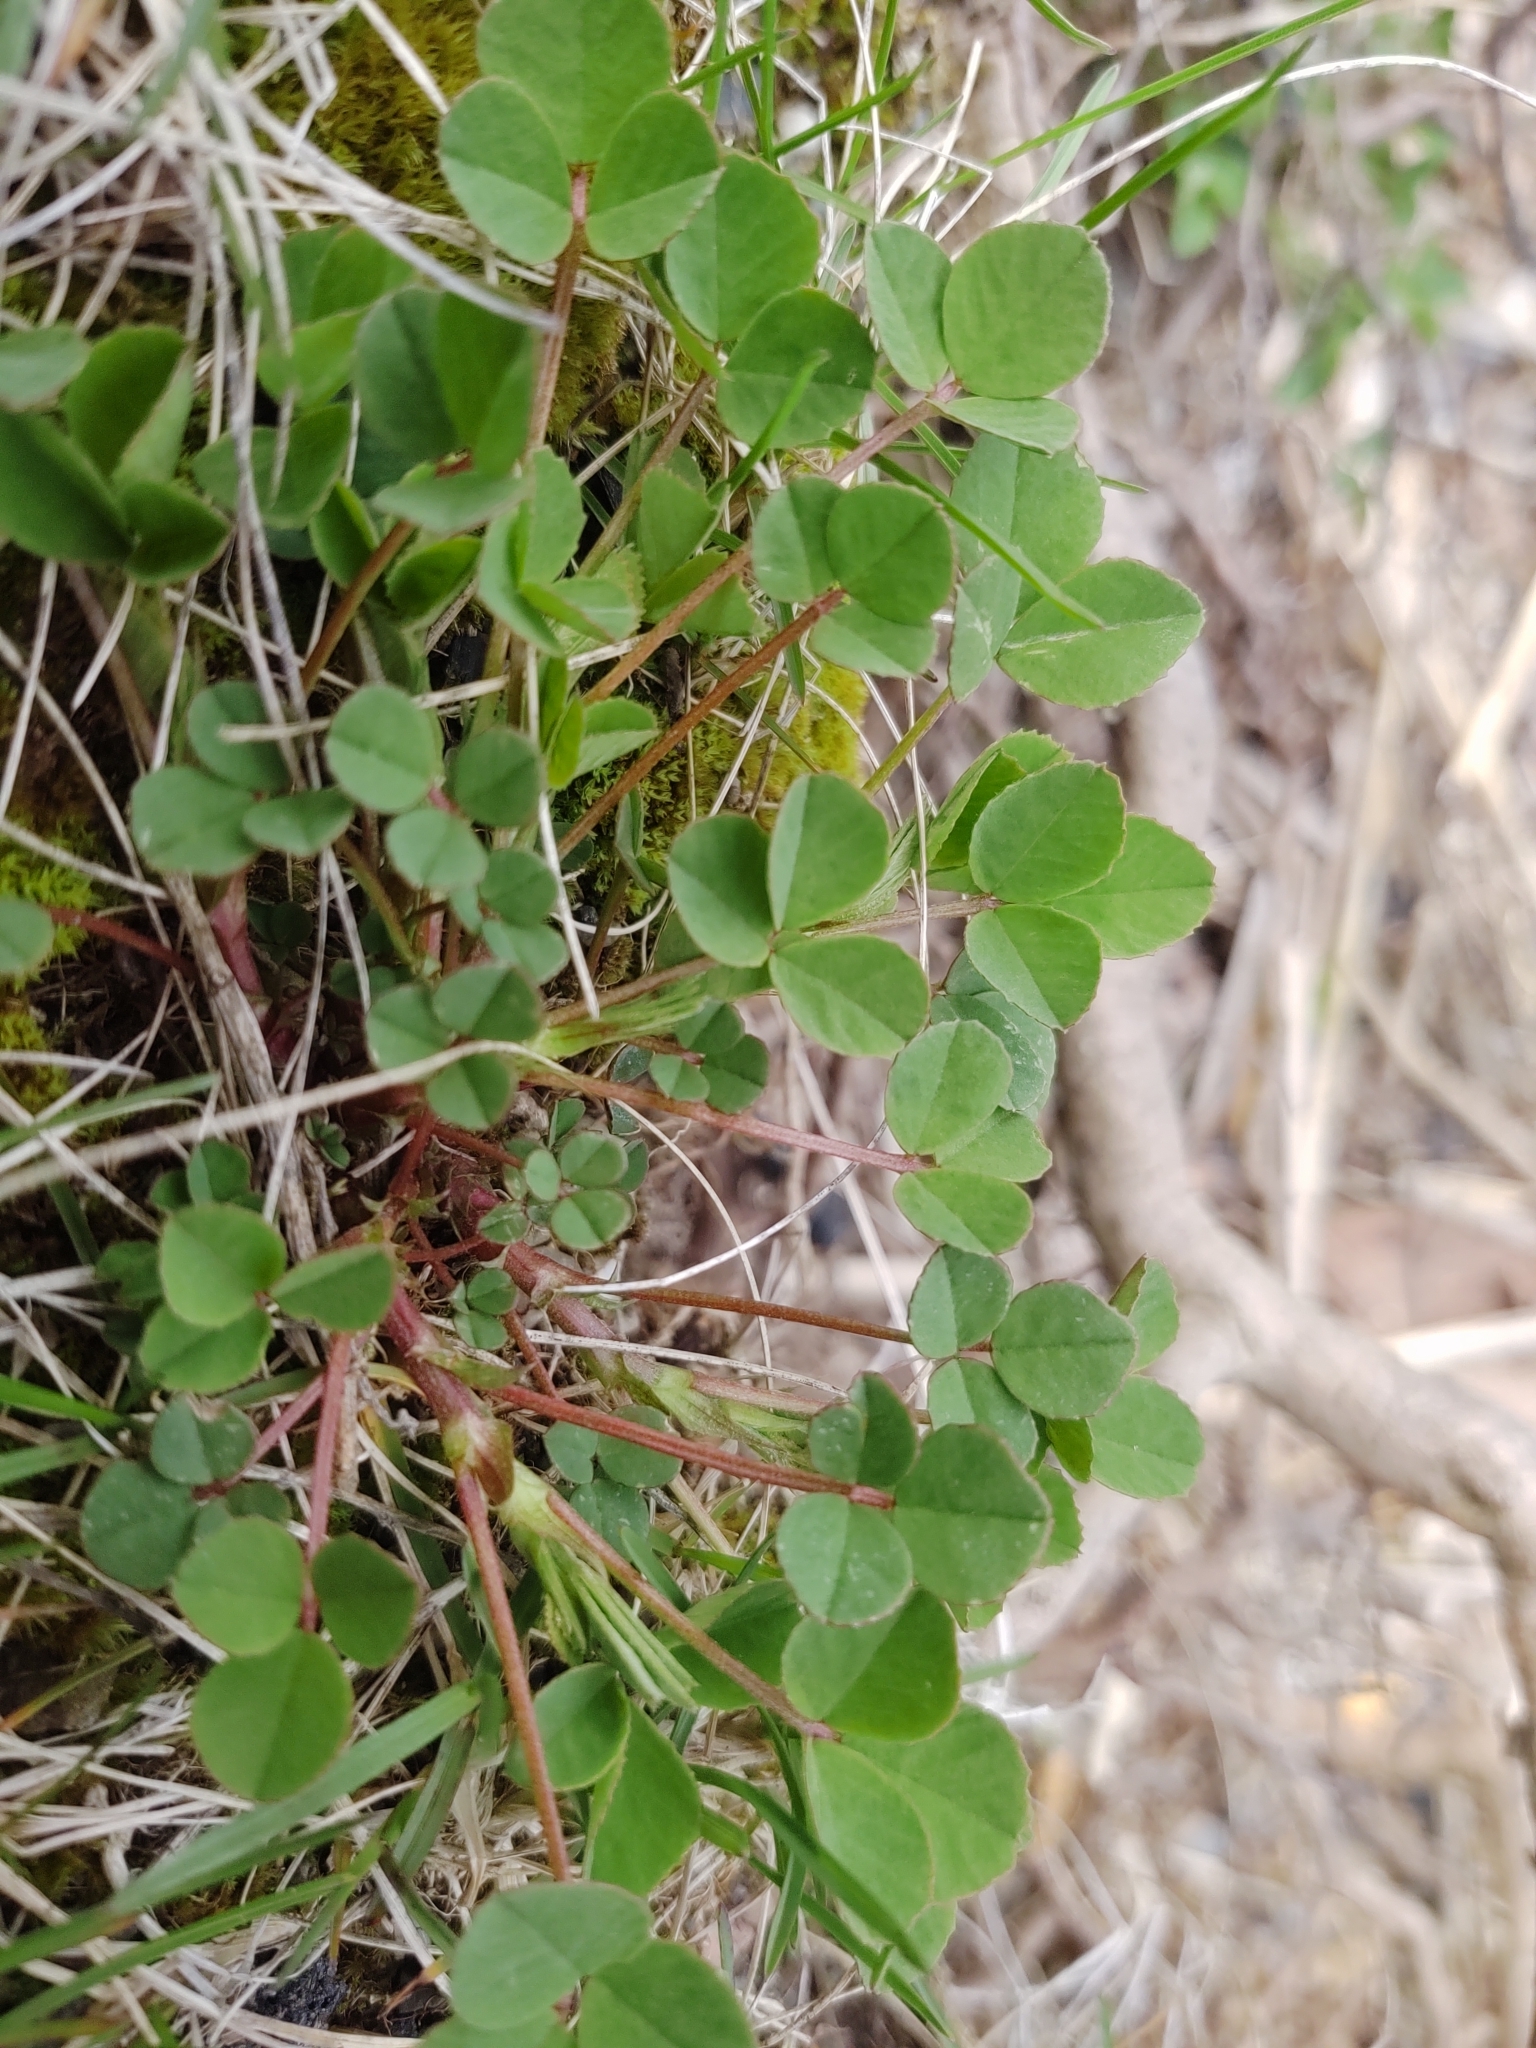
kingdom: Plantae
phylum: Tracheophyta
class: Magnoliopsida
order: Fabales
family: Fabaceae
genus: Trifolium
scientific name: Trifolium repens
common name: White clover
